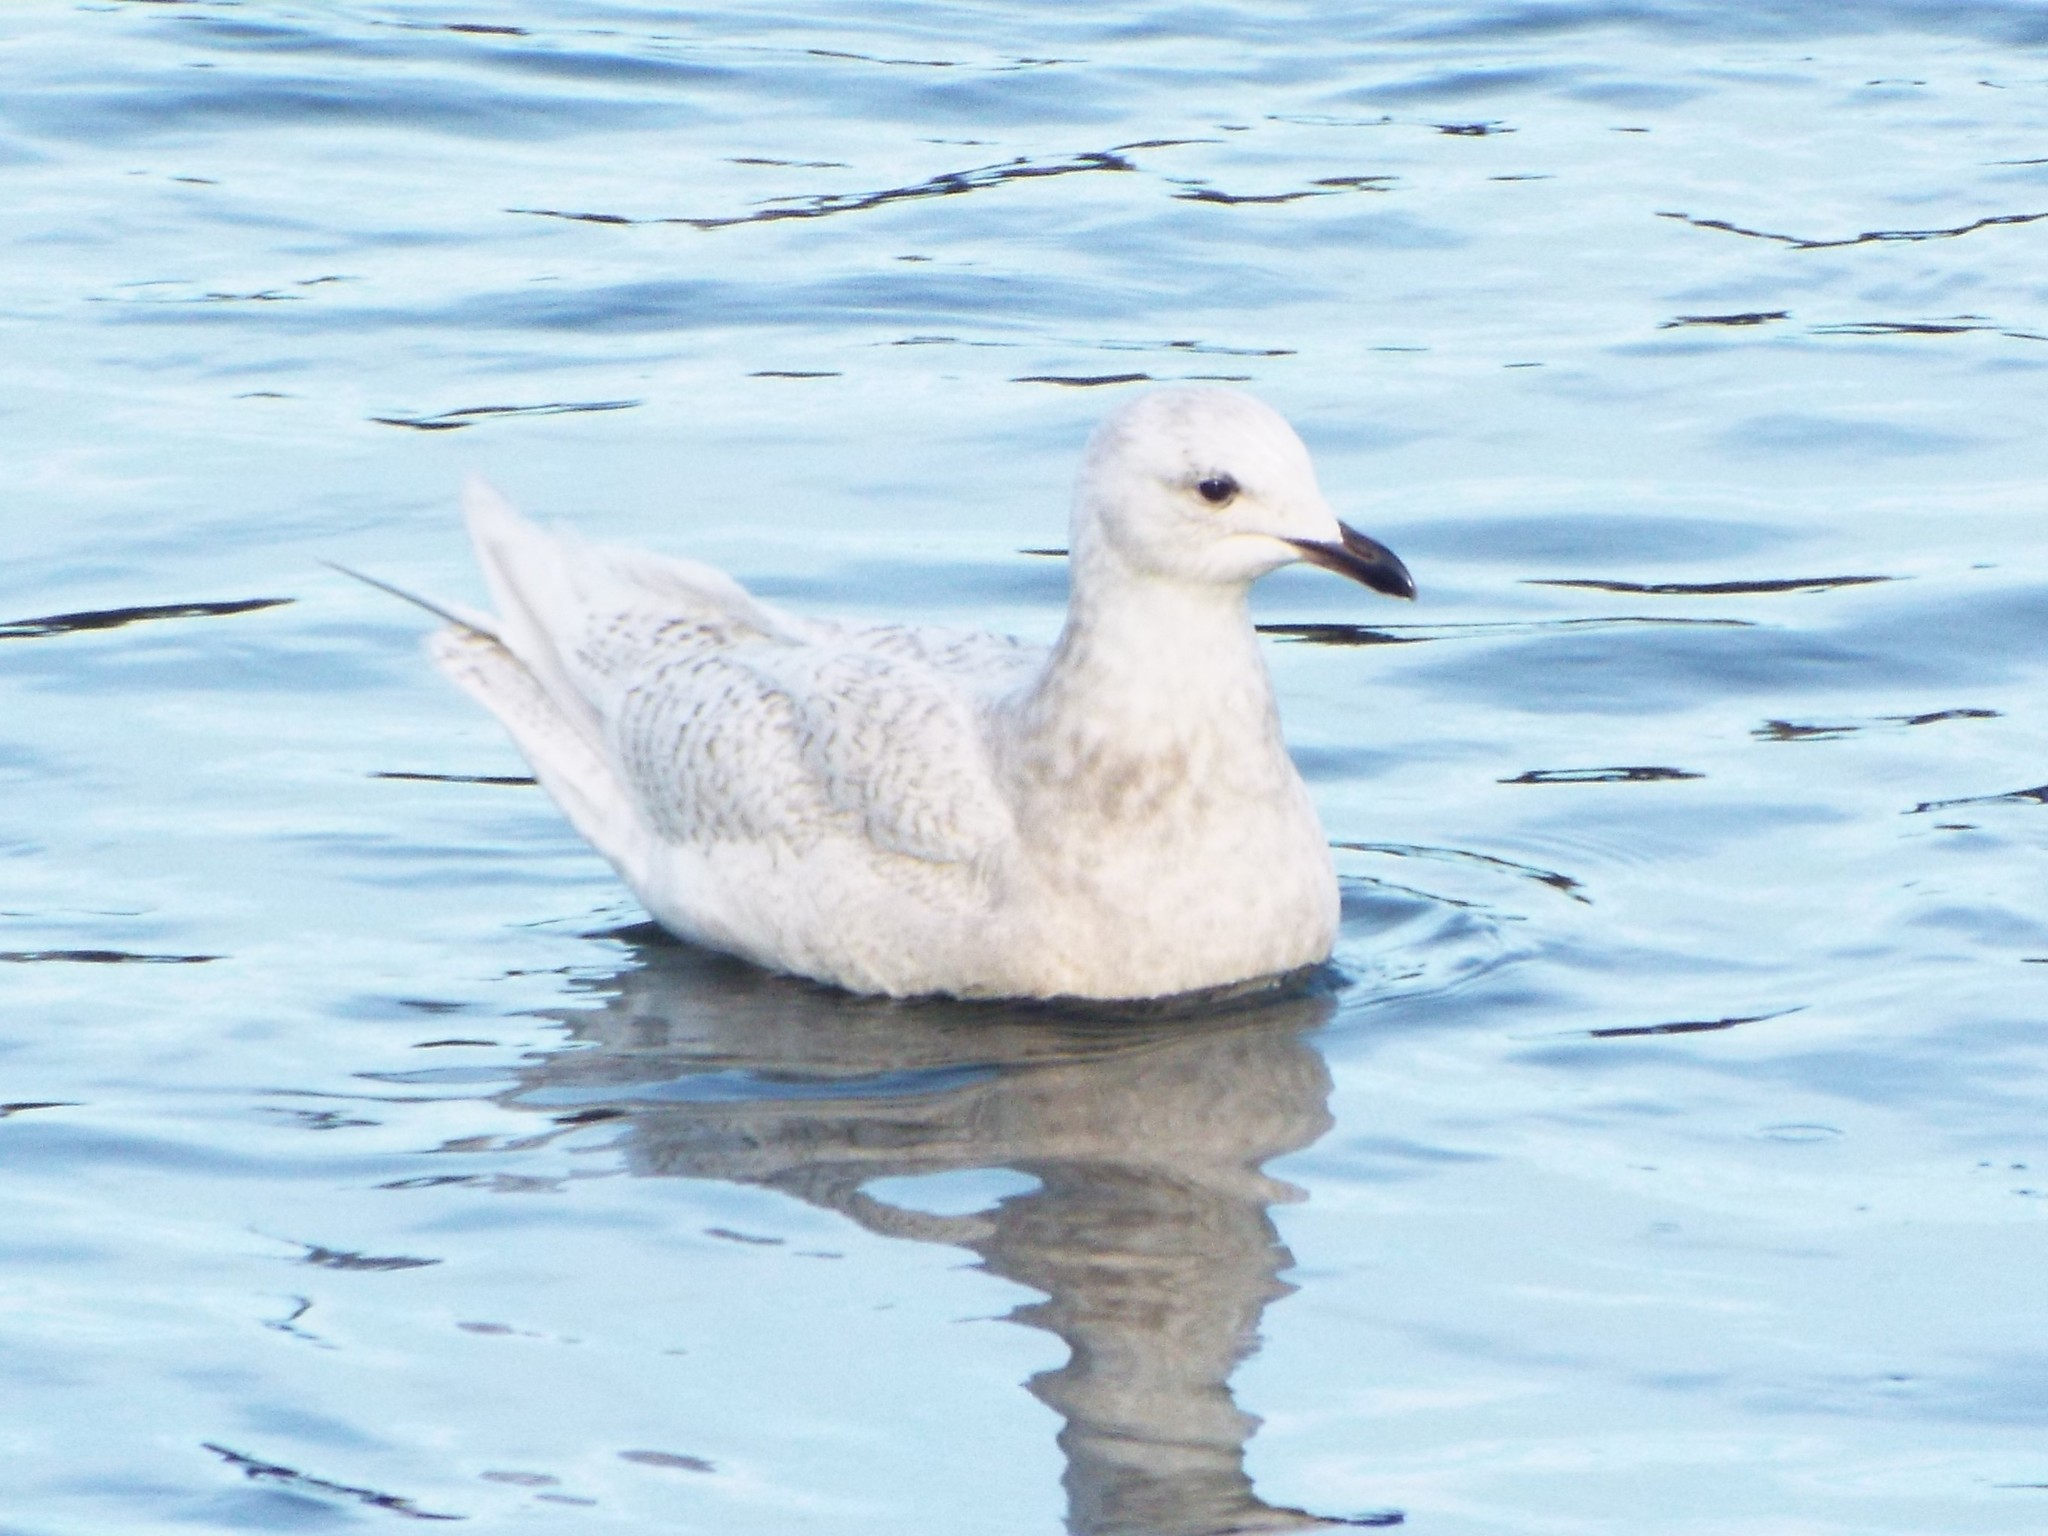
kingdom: Animalia
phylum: Chordata
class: Aves
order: Charadriiformes
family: Laridae
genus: Larus
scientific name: Larus glaucoides
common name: Iceland gull
